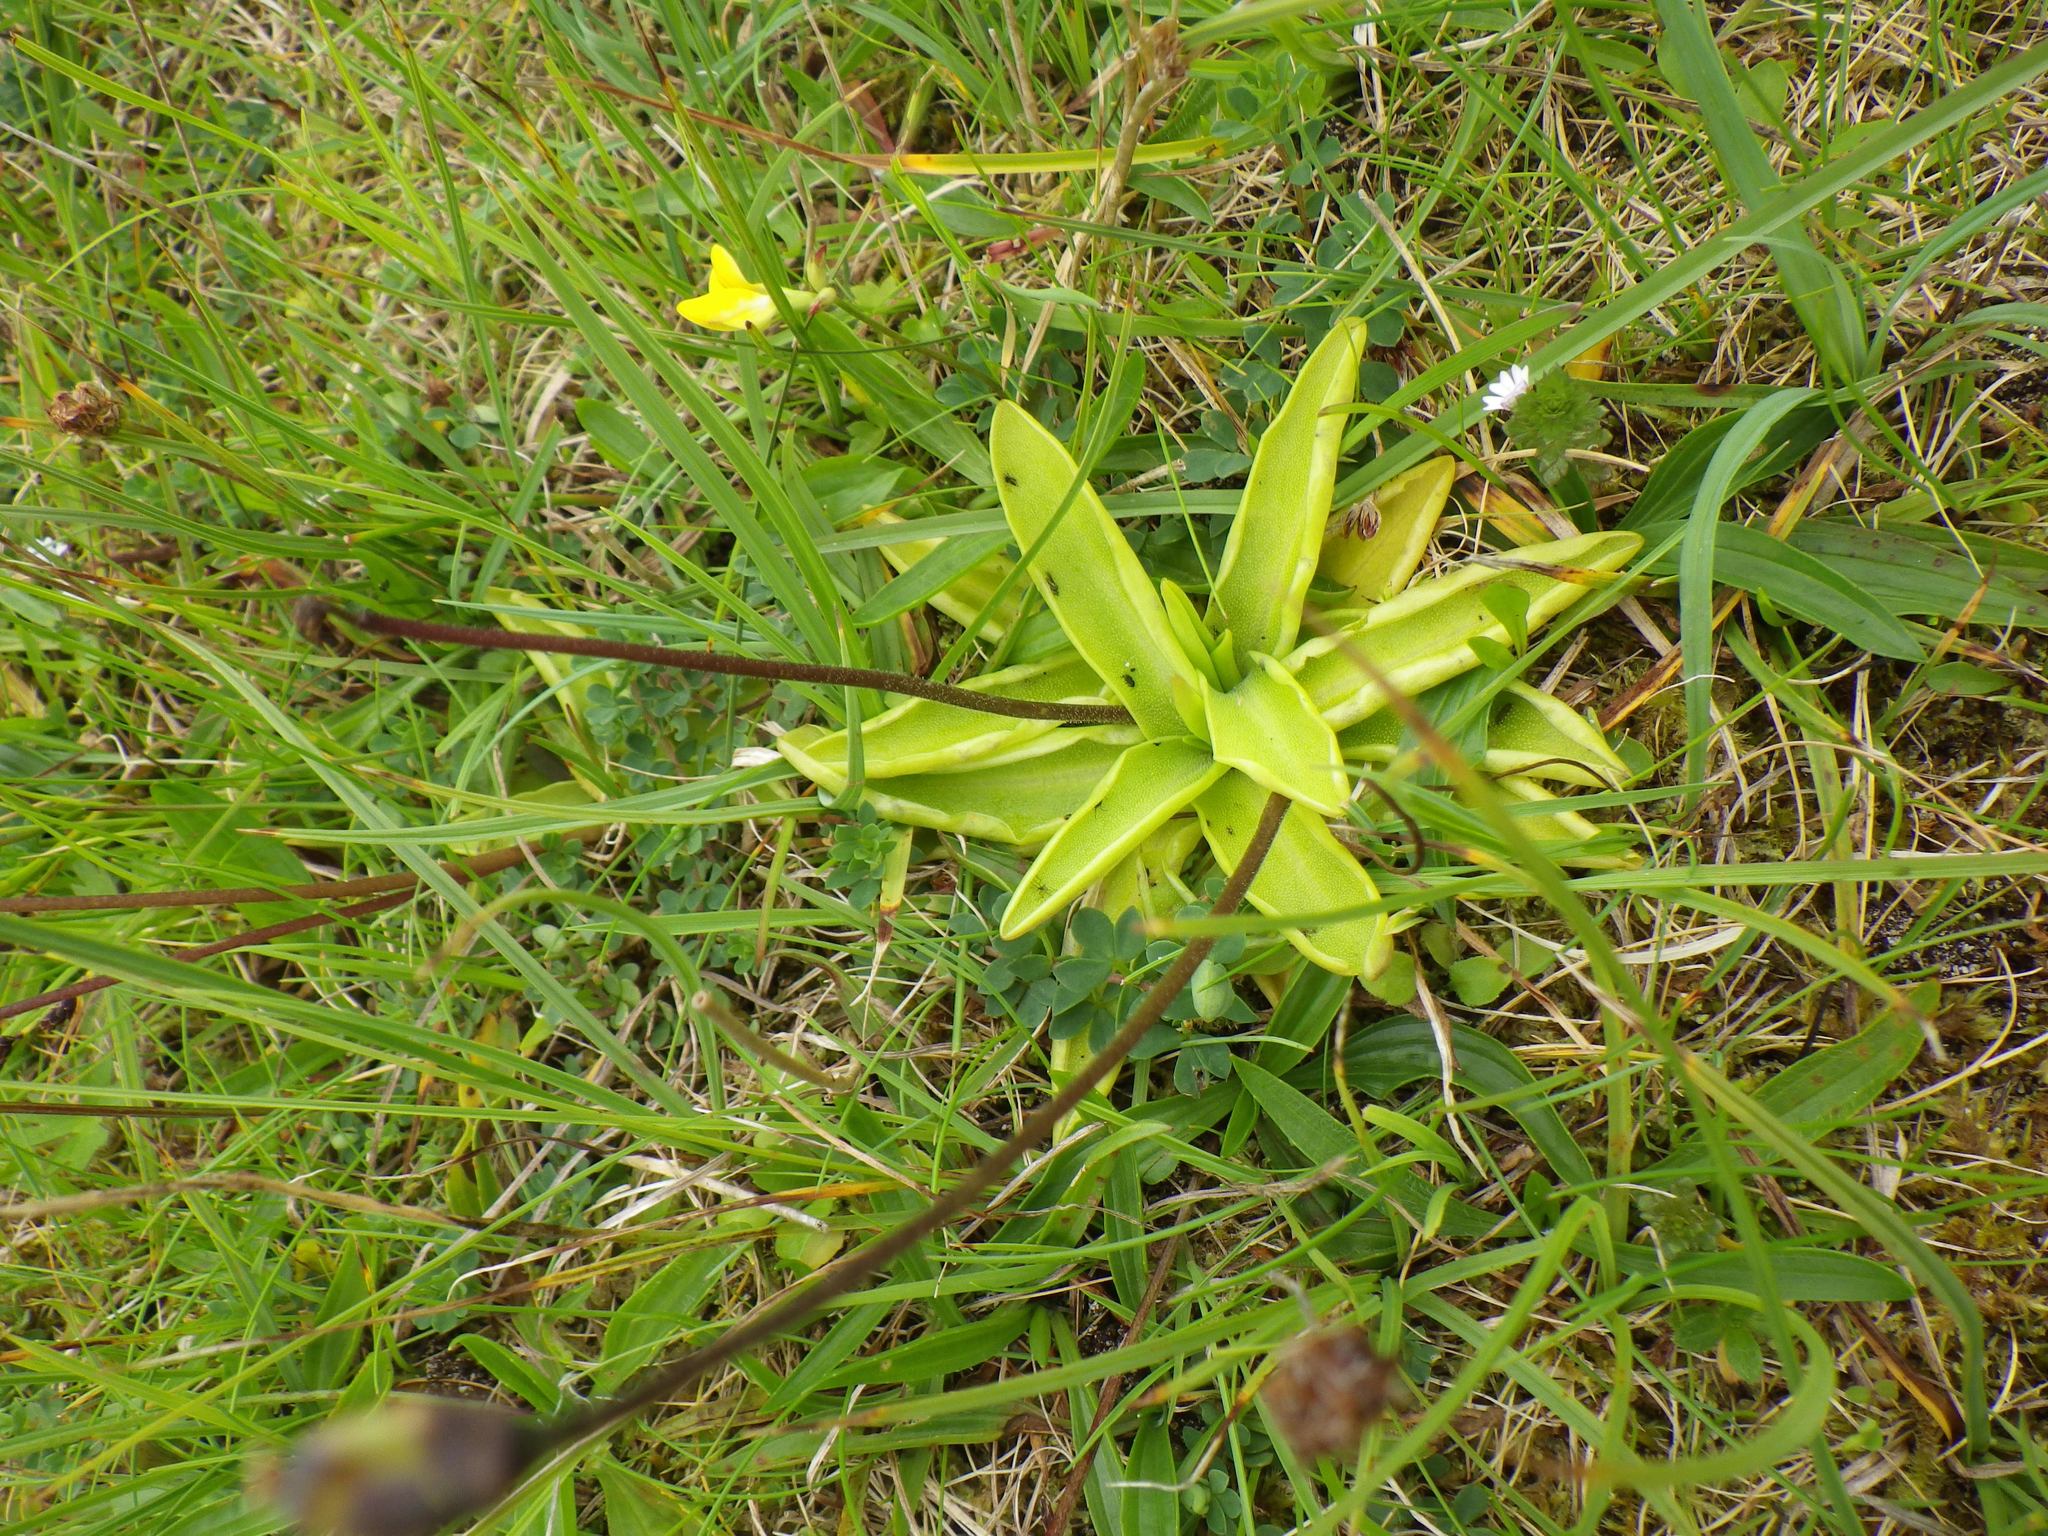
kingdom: Plantae
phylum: Tracheophyta
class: Magnoliopsida
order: Lamiales
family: Lentibulariaceae
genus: Pinguicula
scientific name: Pinguicula vulgaris
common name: Common butterwort
